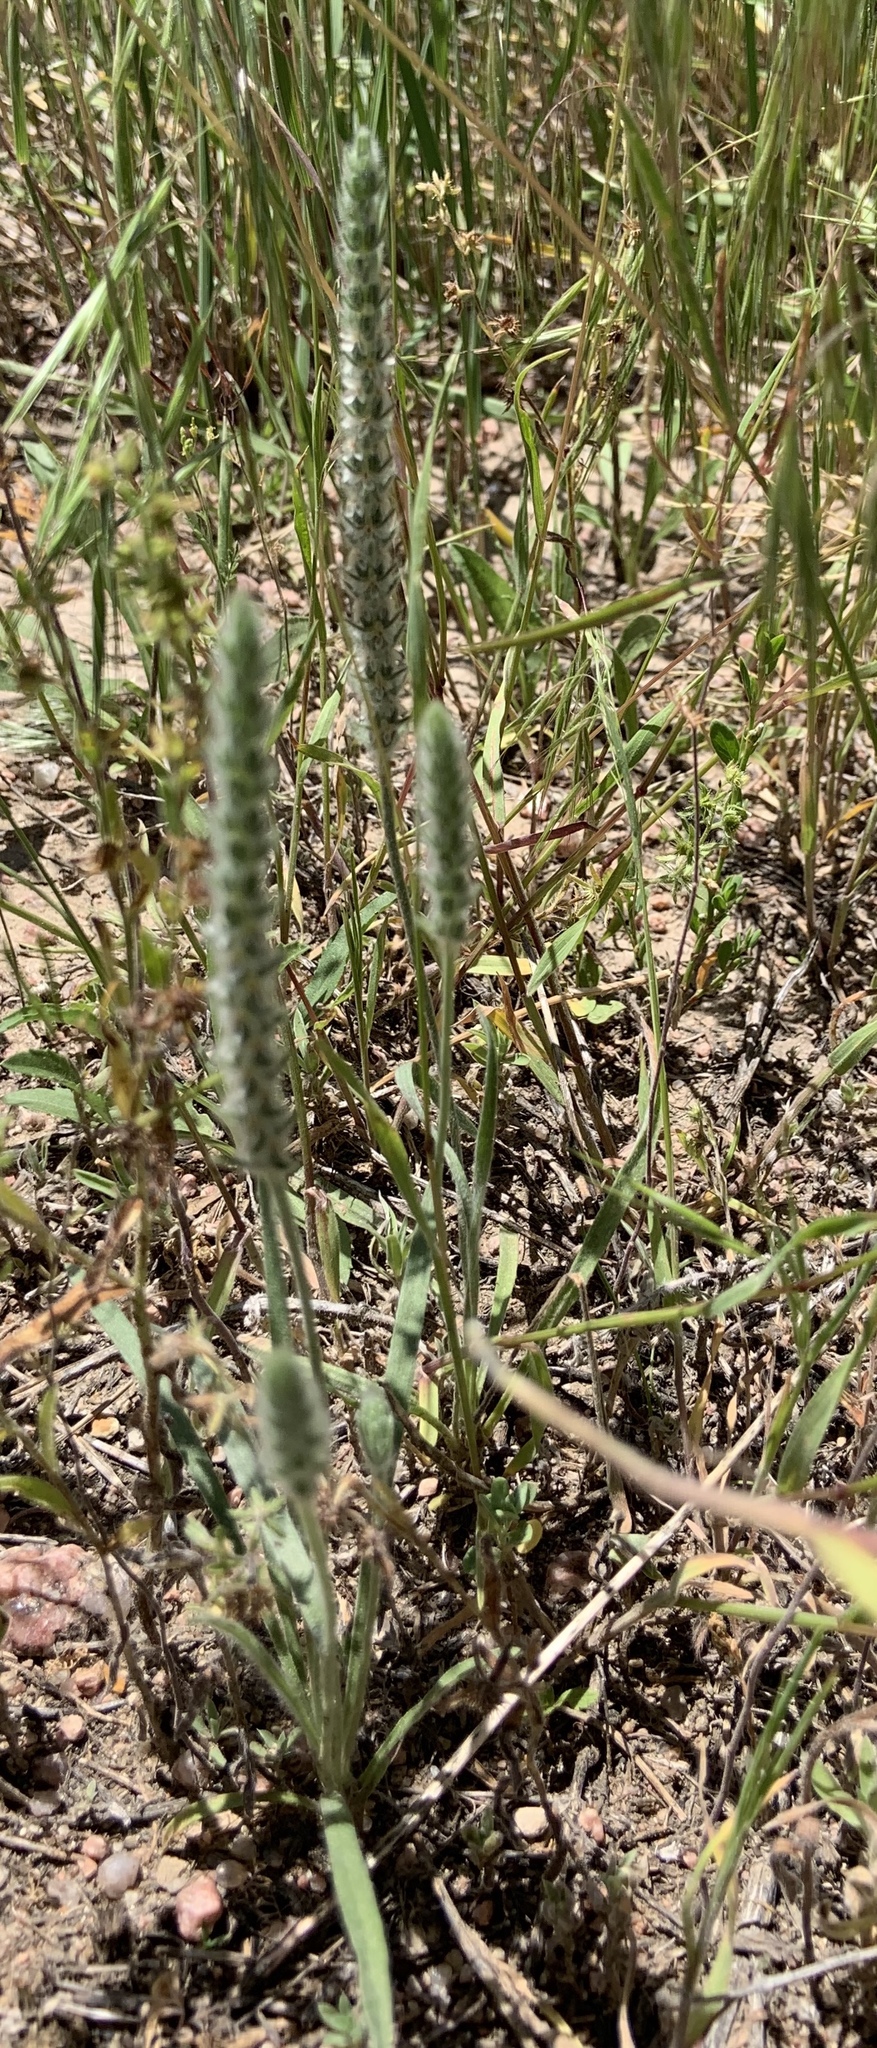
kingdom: Plantae
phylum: Tracheophyta
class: Magnoliopsida
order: Lamiales
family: Plantaginaceae
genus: Plantago
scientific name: Plantago patagonica
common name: Patagonia indian-wheat
